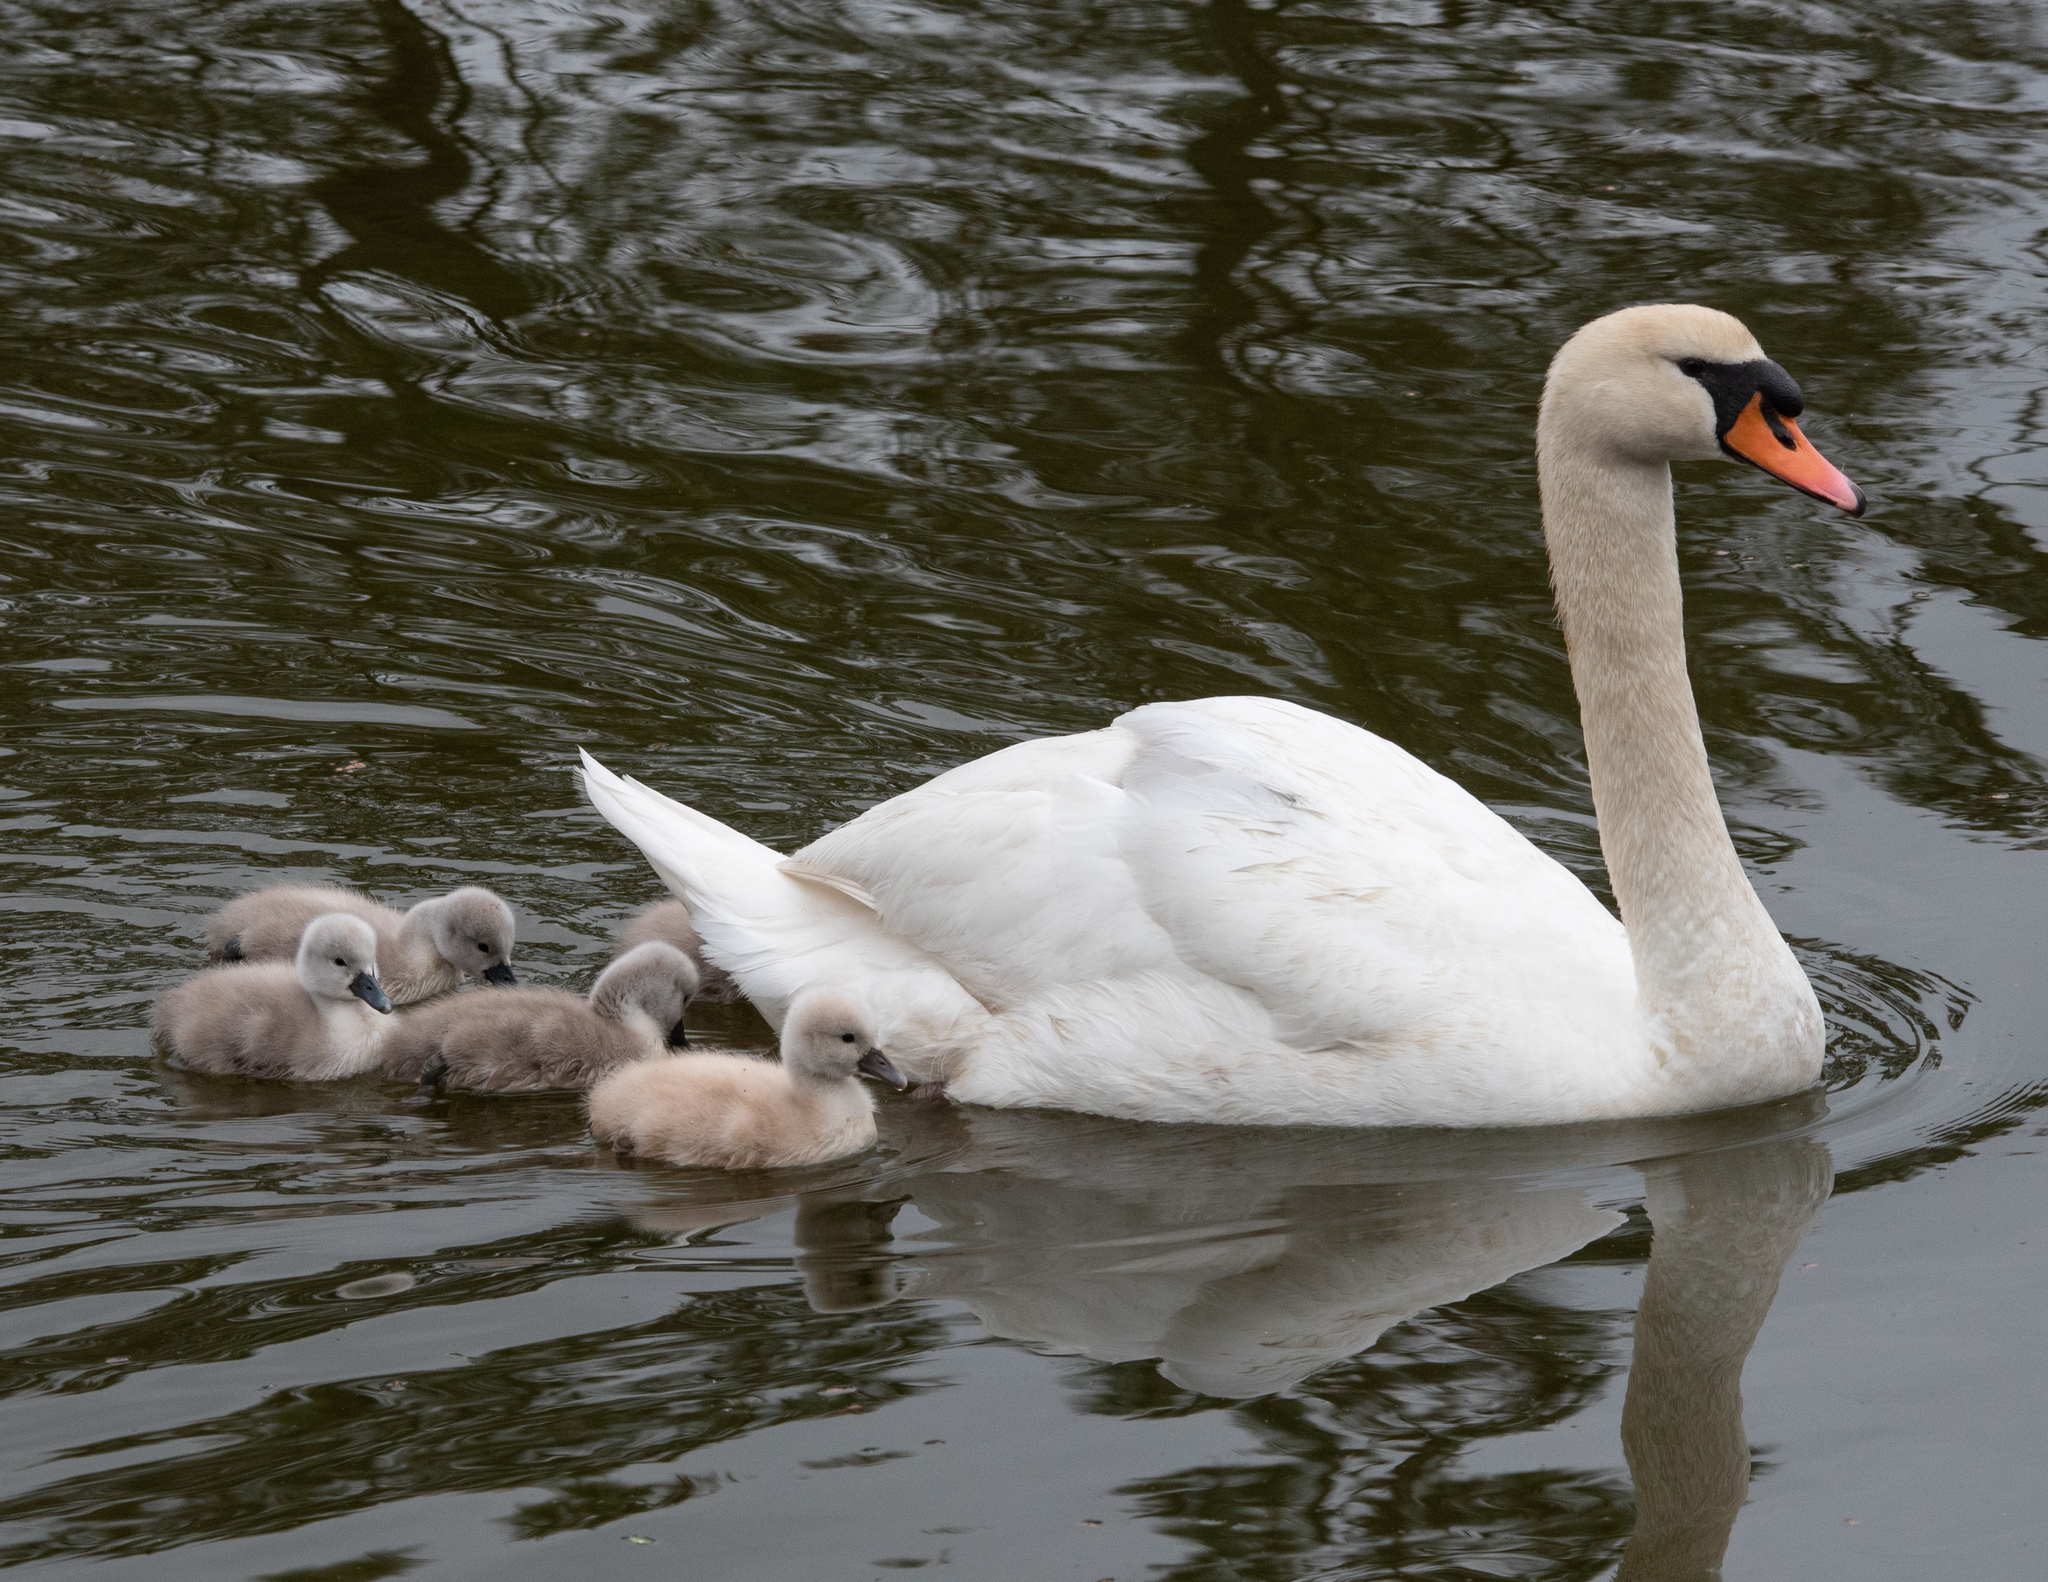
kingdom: Animalia
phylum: Chordata
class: Aves
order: Anseriformes
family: Anatidae
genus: Cygnus
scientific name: Cygnus olor
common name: Mute swan
